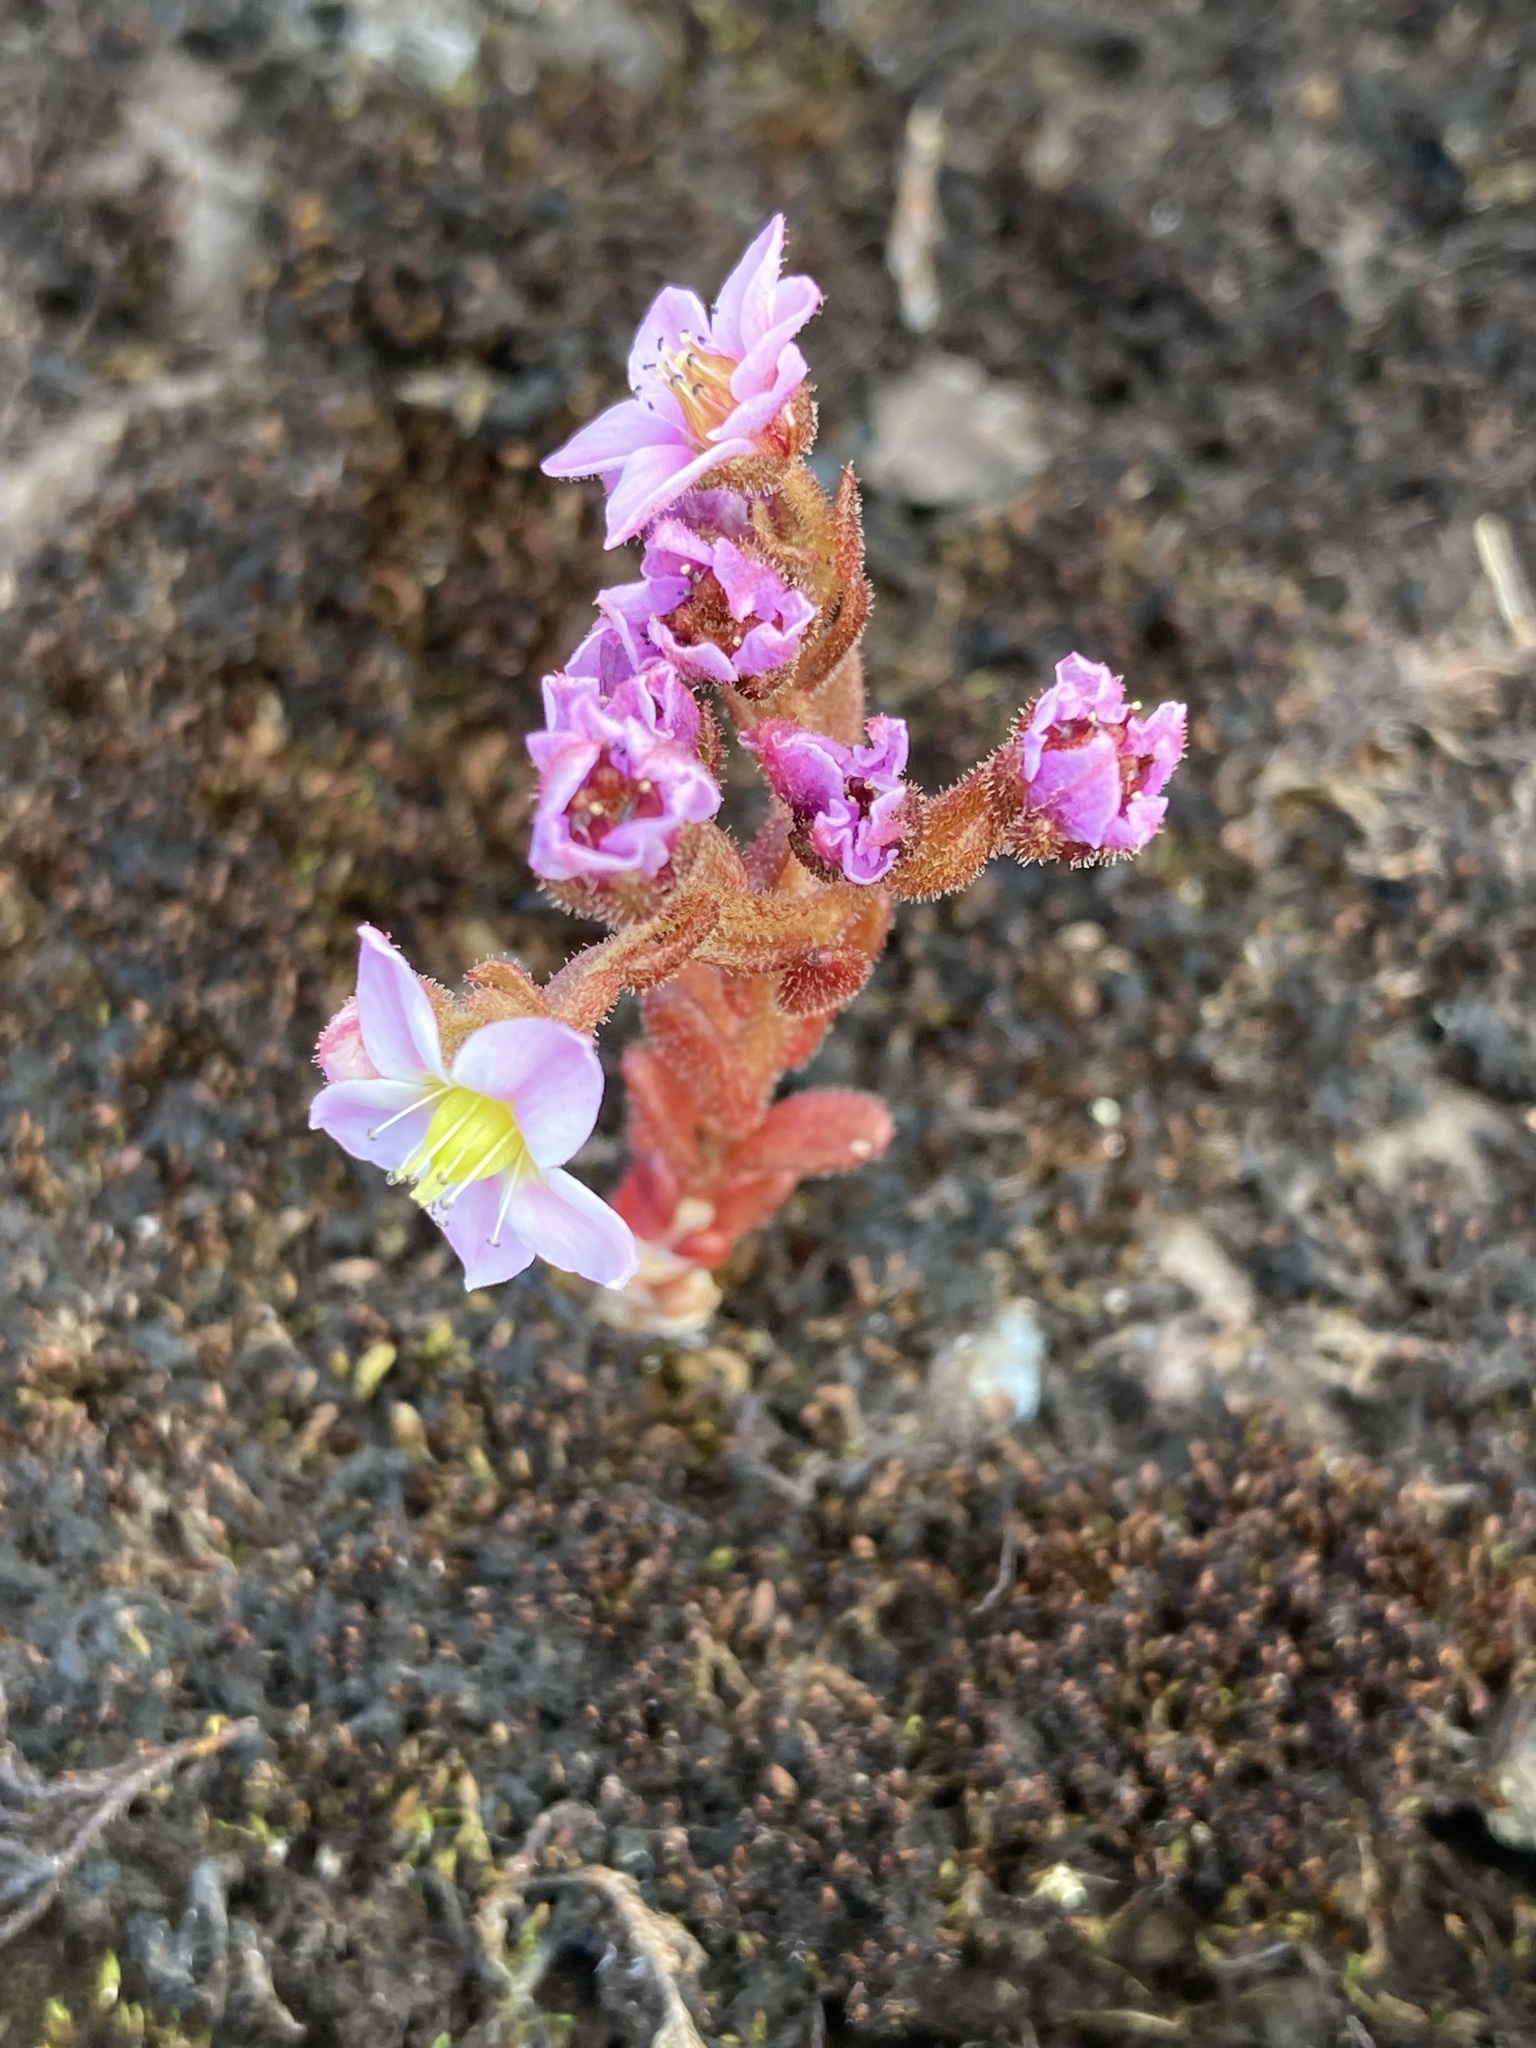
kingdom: Plantae
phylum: Tracheophyta
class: Magnoliopsida
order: Saxifragales
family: Crassulaceae
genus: Sedum
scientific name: Sedum villosum
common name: Hairy stonecrop
